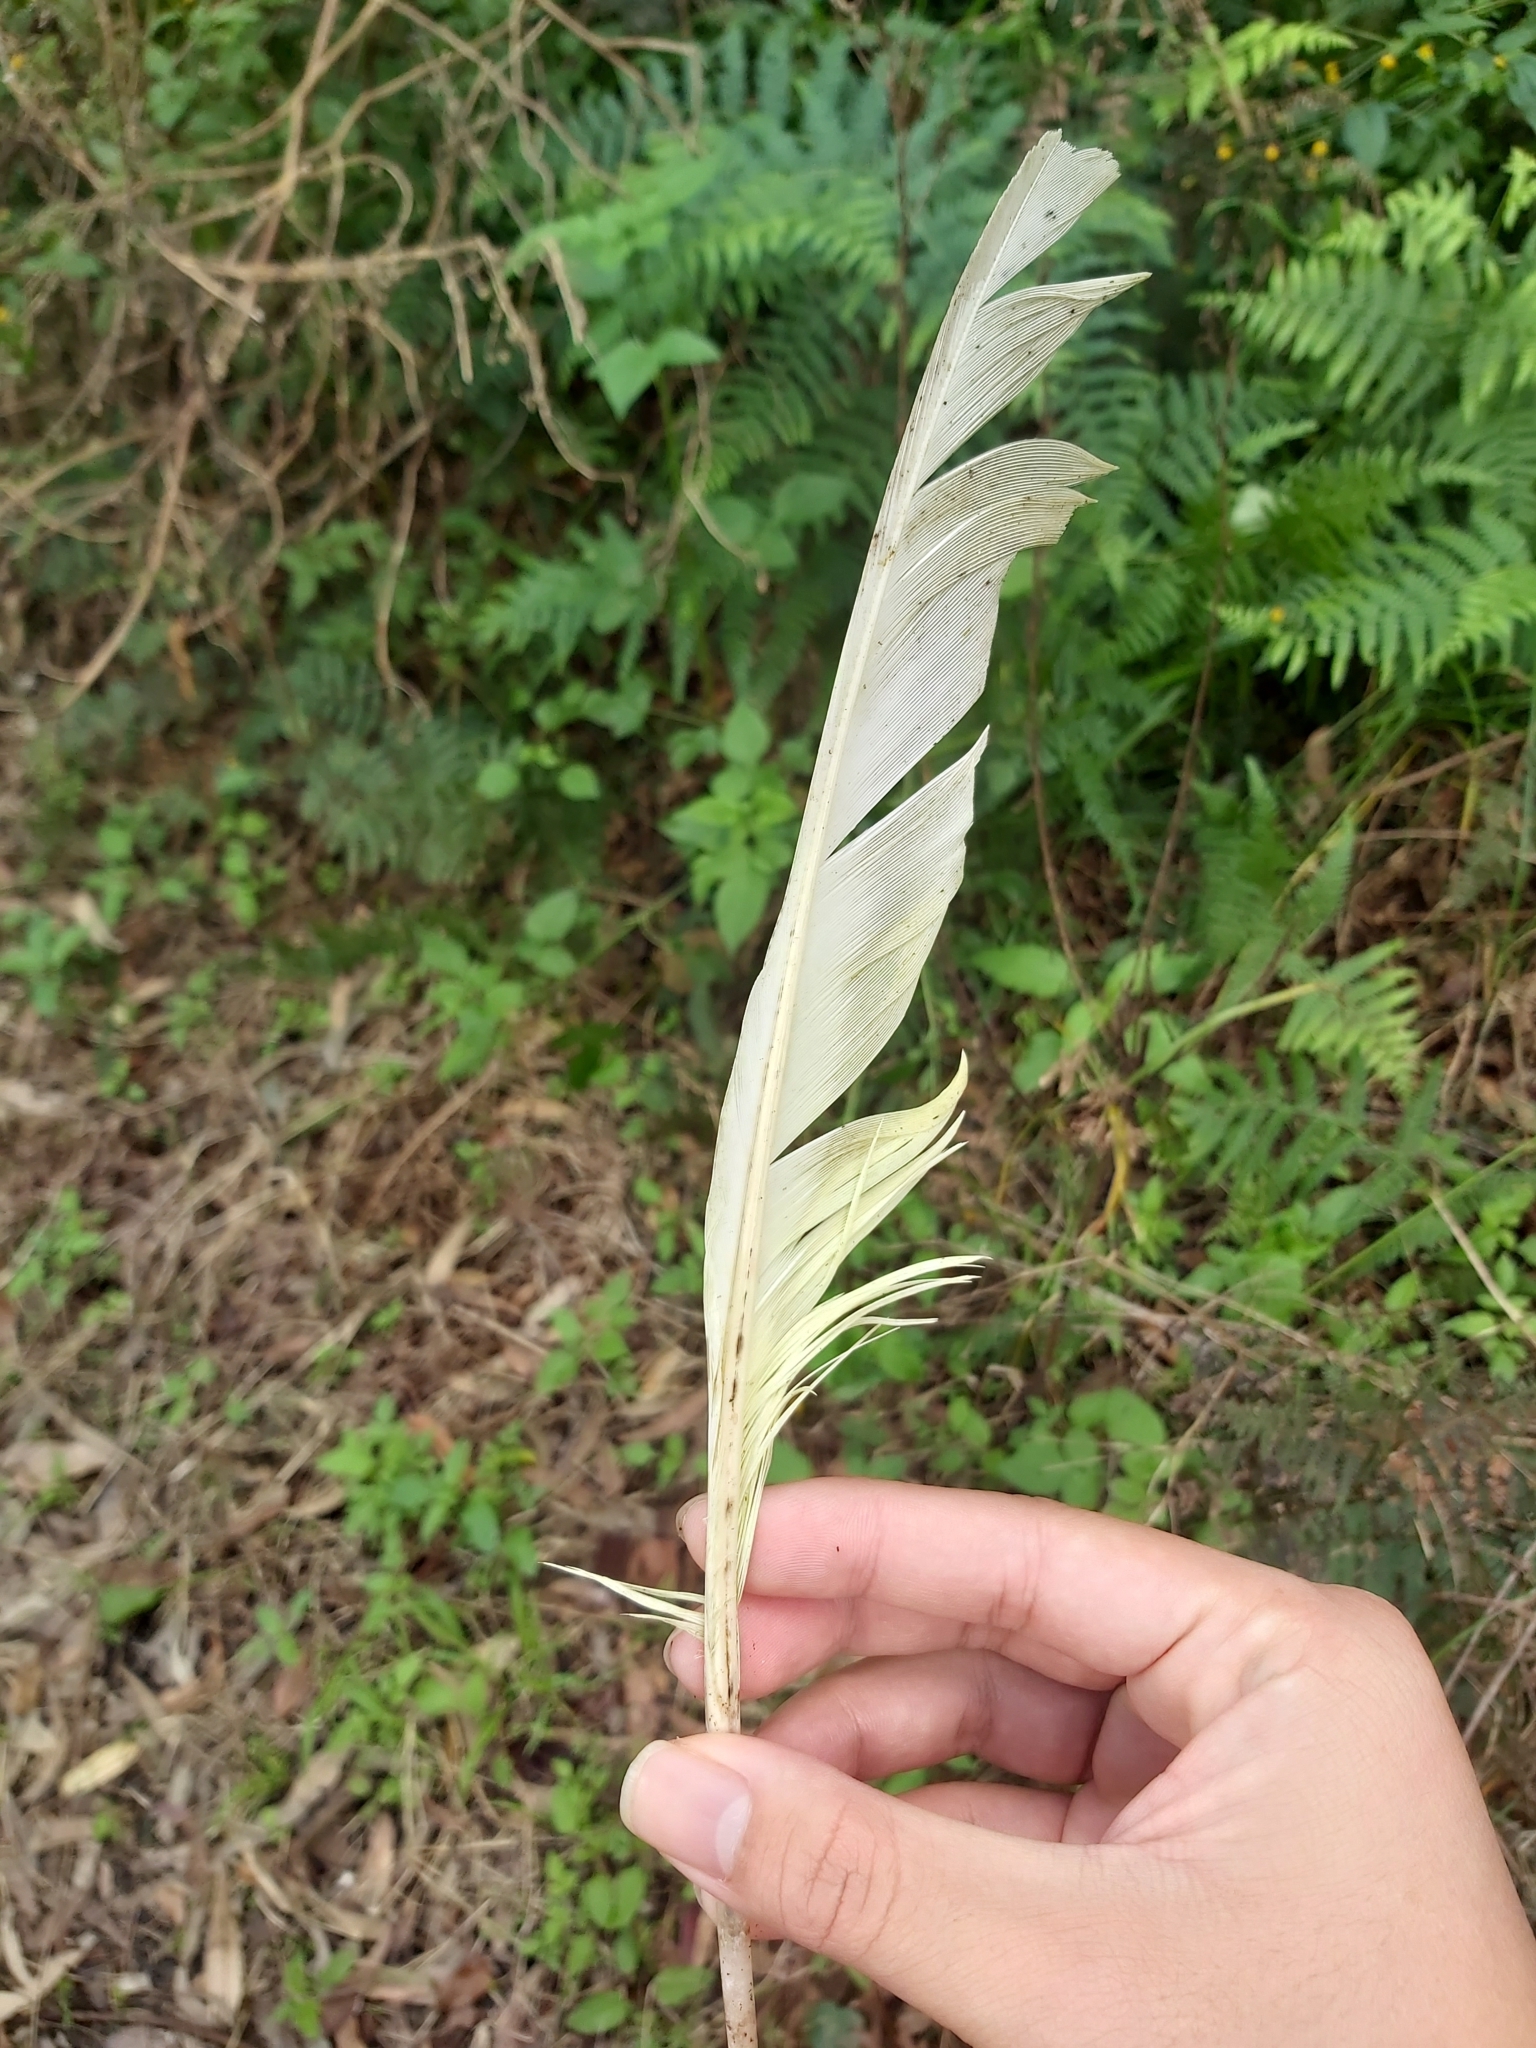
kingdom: Animalia
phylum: Chordata
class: Aves
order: Psittaciformes
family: Psittacidae
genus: Cacatua
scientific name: Cacatua galerita
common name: Sulphur-crested cockatoo
